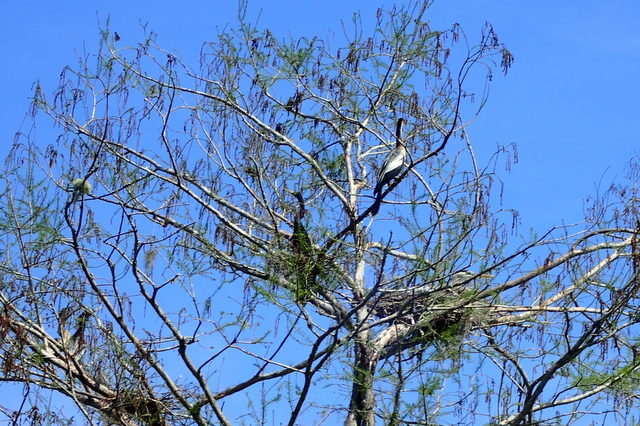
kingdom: Animalia
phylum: Chordata
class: Aves
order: Pelecaniformes
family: Ardeidae
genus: Ardea
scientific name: Ardea herodias
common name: Great blue heron
